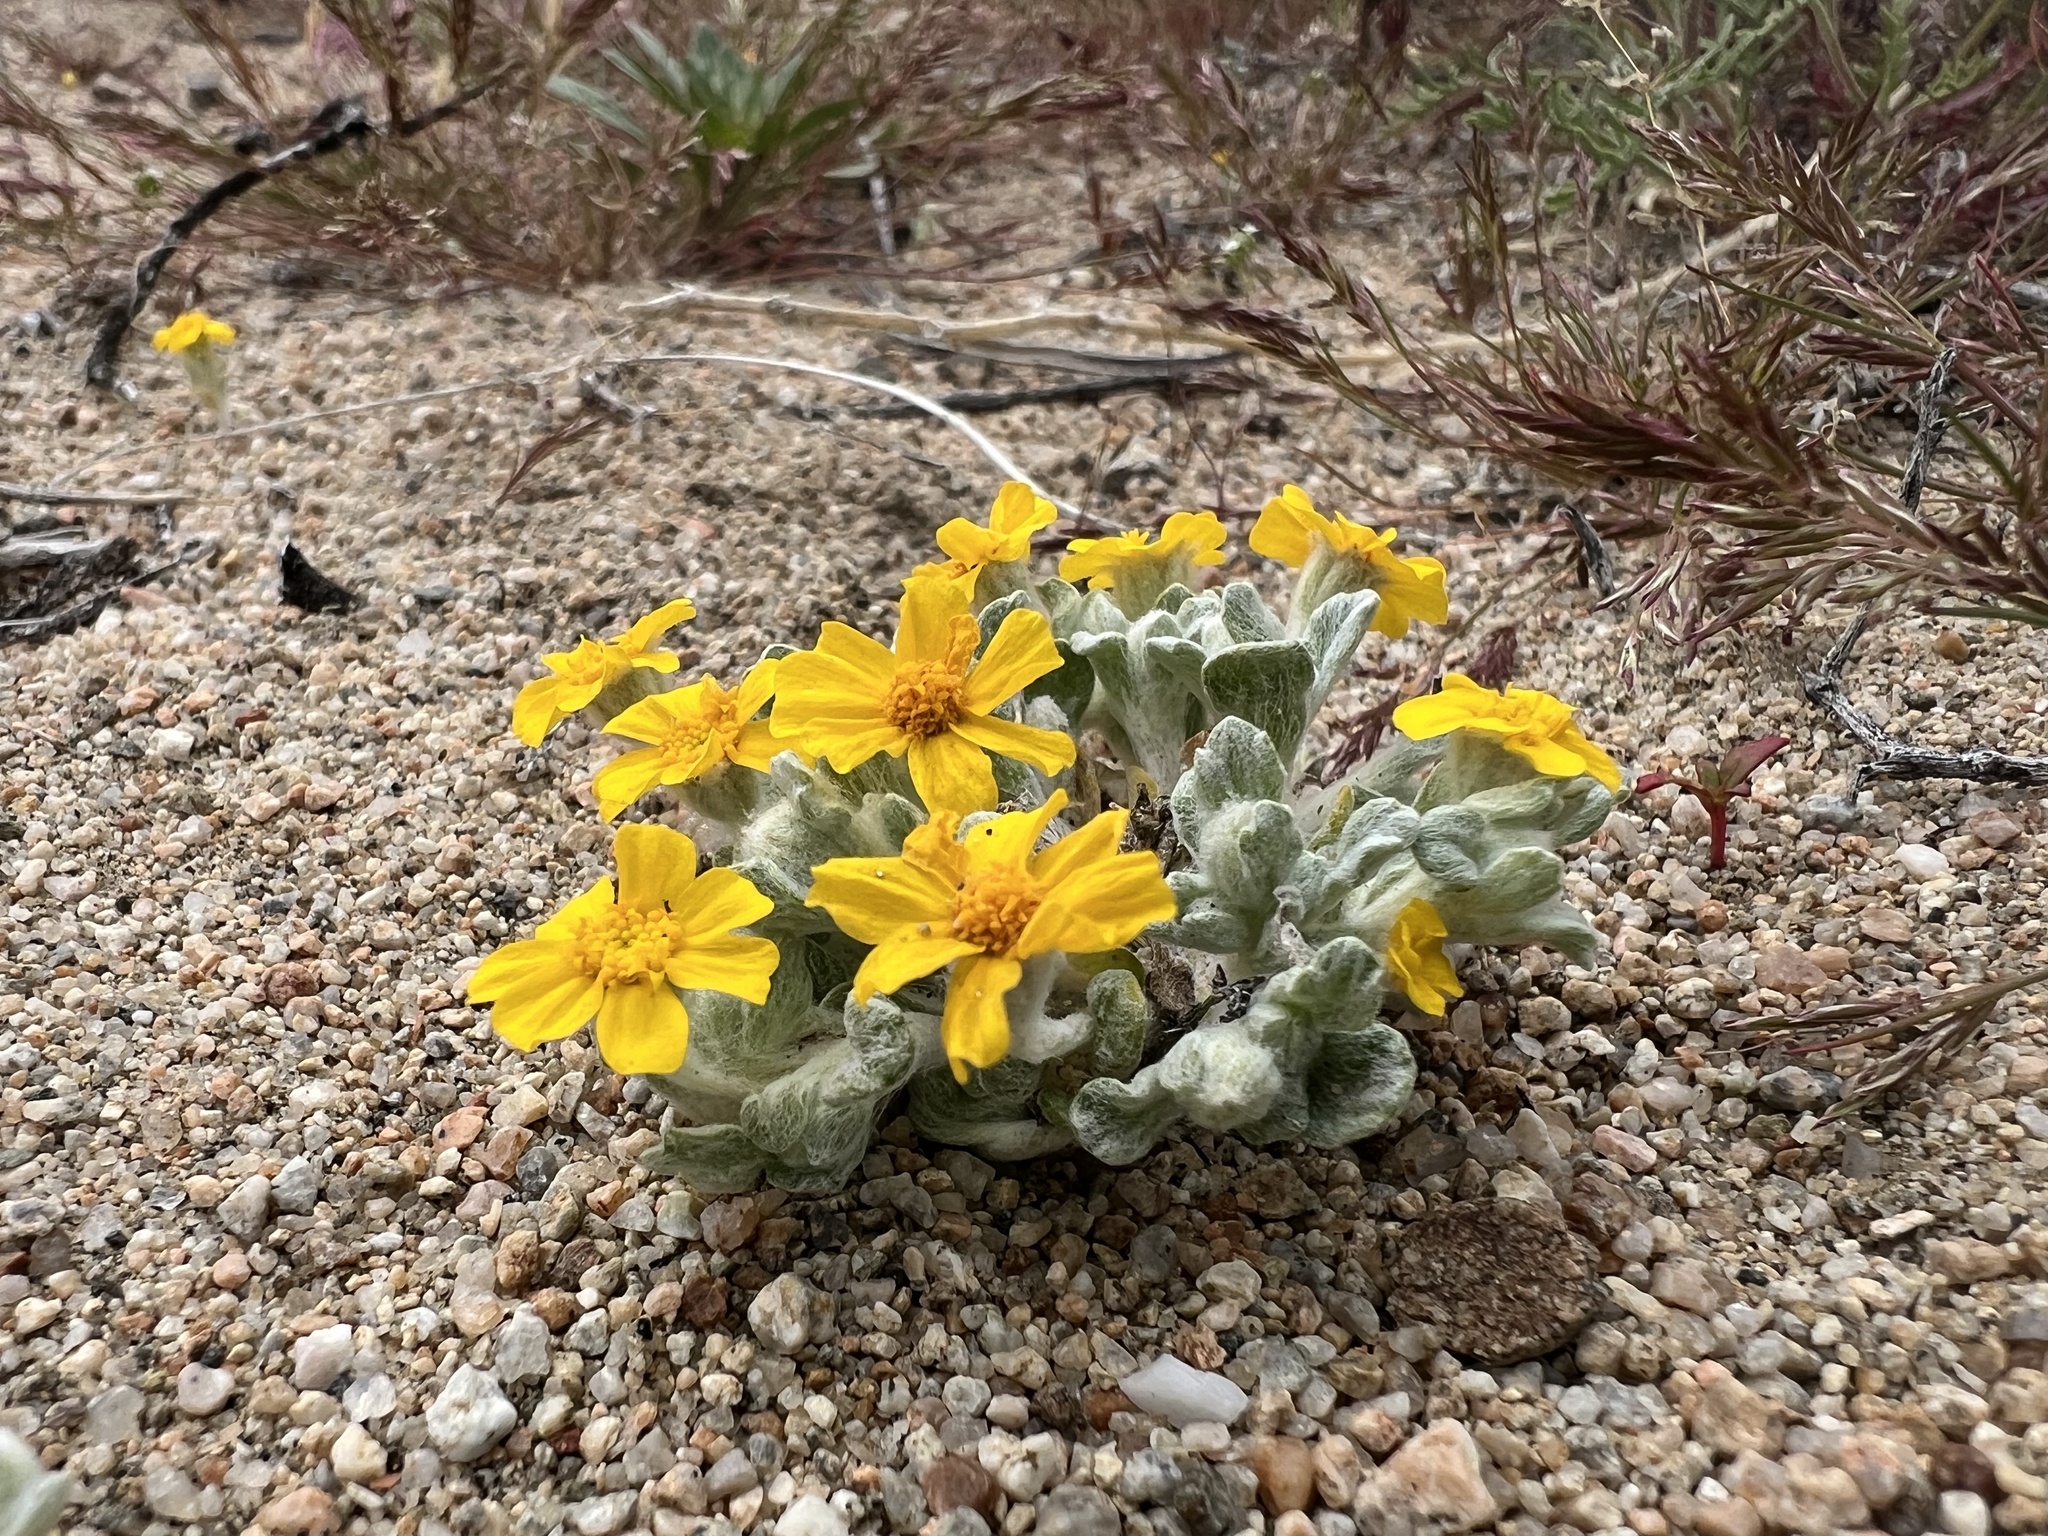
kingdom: Plantae
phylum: Tracheophyta
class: Magnoliopsida
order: Asterales
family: Asteraceae
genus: Eriophyllum
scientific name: Eriophyllum wallacei
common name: Wallace's woolly daisy
